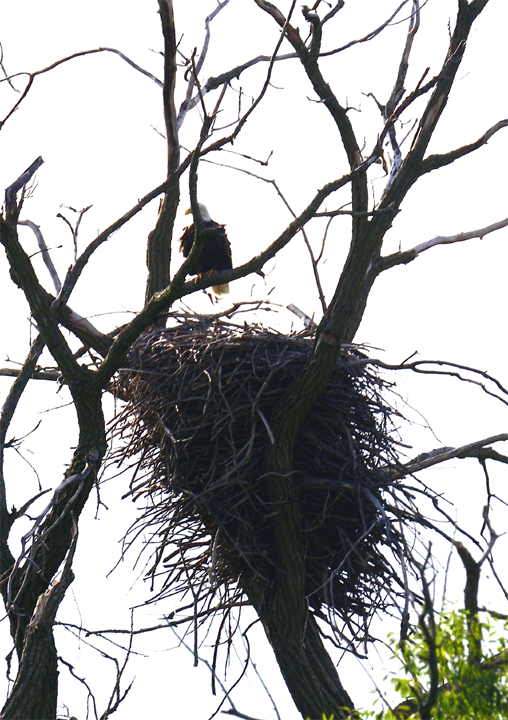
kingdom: Animalia
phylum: Chordata
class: Aves
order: Accipitriformes
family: Accipitridae
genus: Haliaeetus
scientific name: Haliaeetus leucocephalus
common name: Bald eagle
